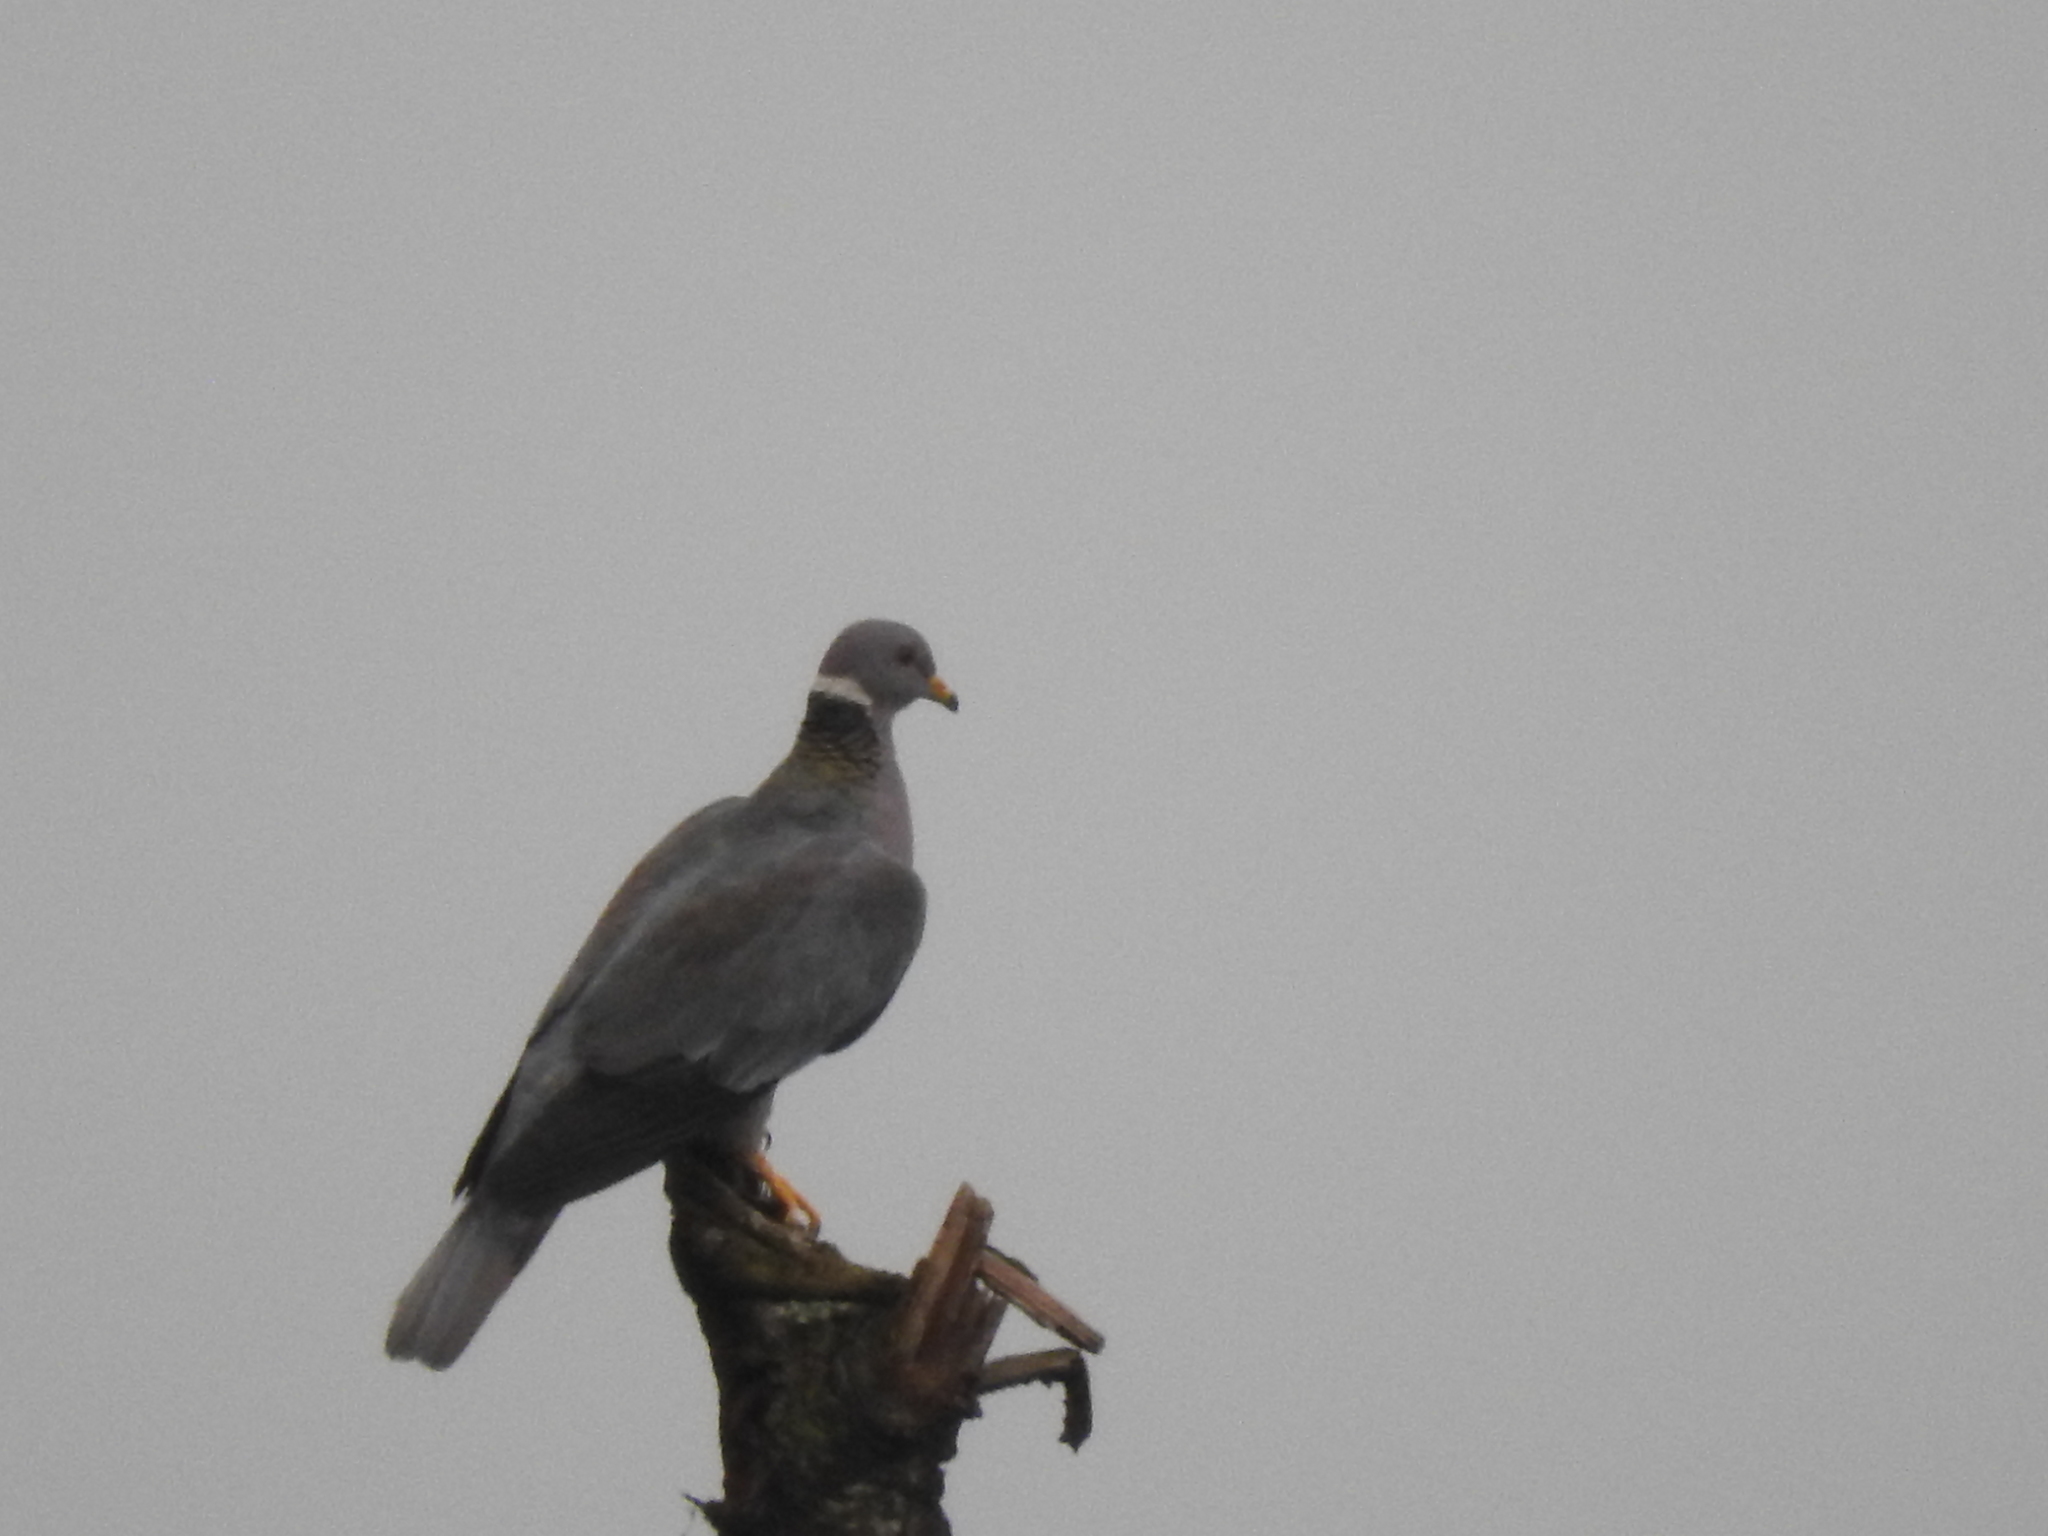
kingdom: Animalia
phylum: Chordata
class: Aves
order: Columbiformes
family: Columbidae
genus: Patagioenas
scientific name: Patagioenas fasciata
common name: Band-tailed pigeon
